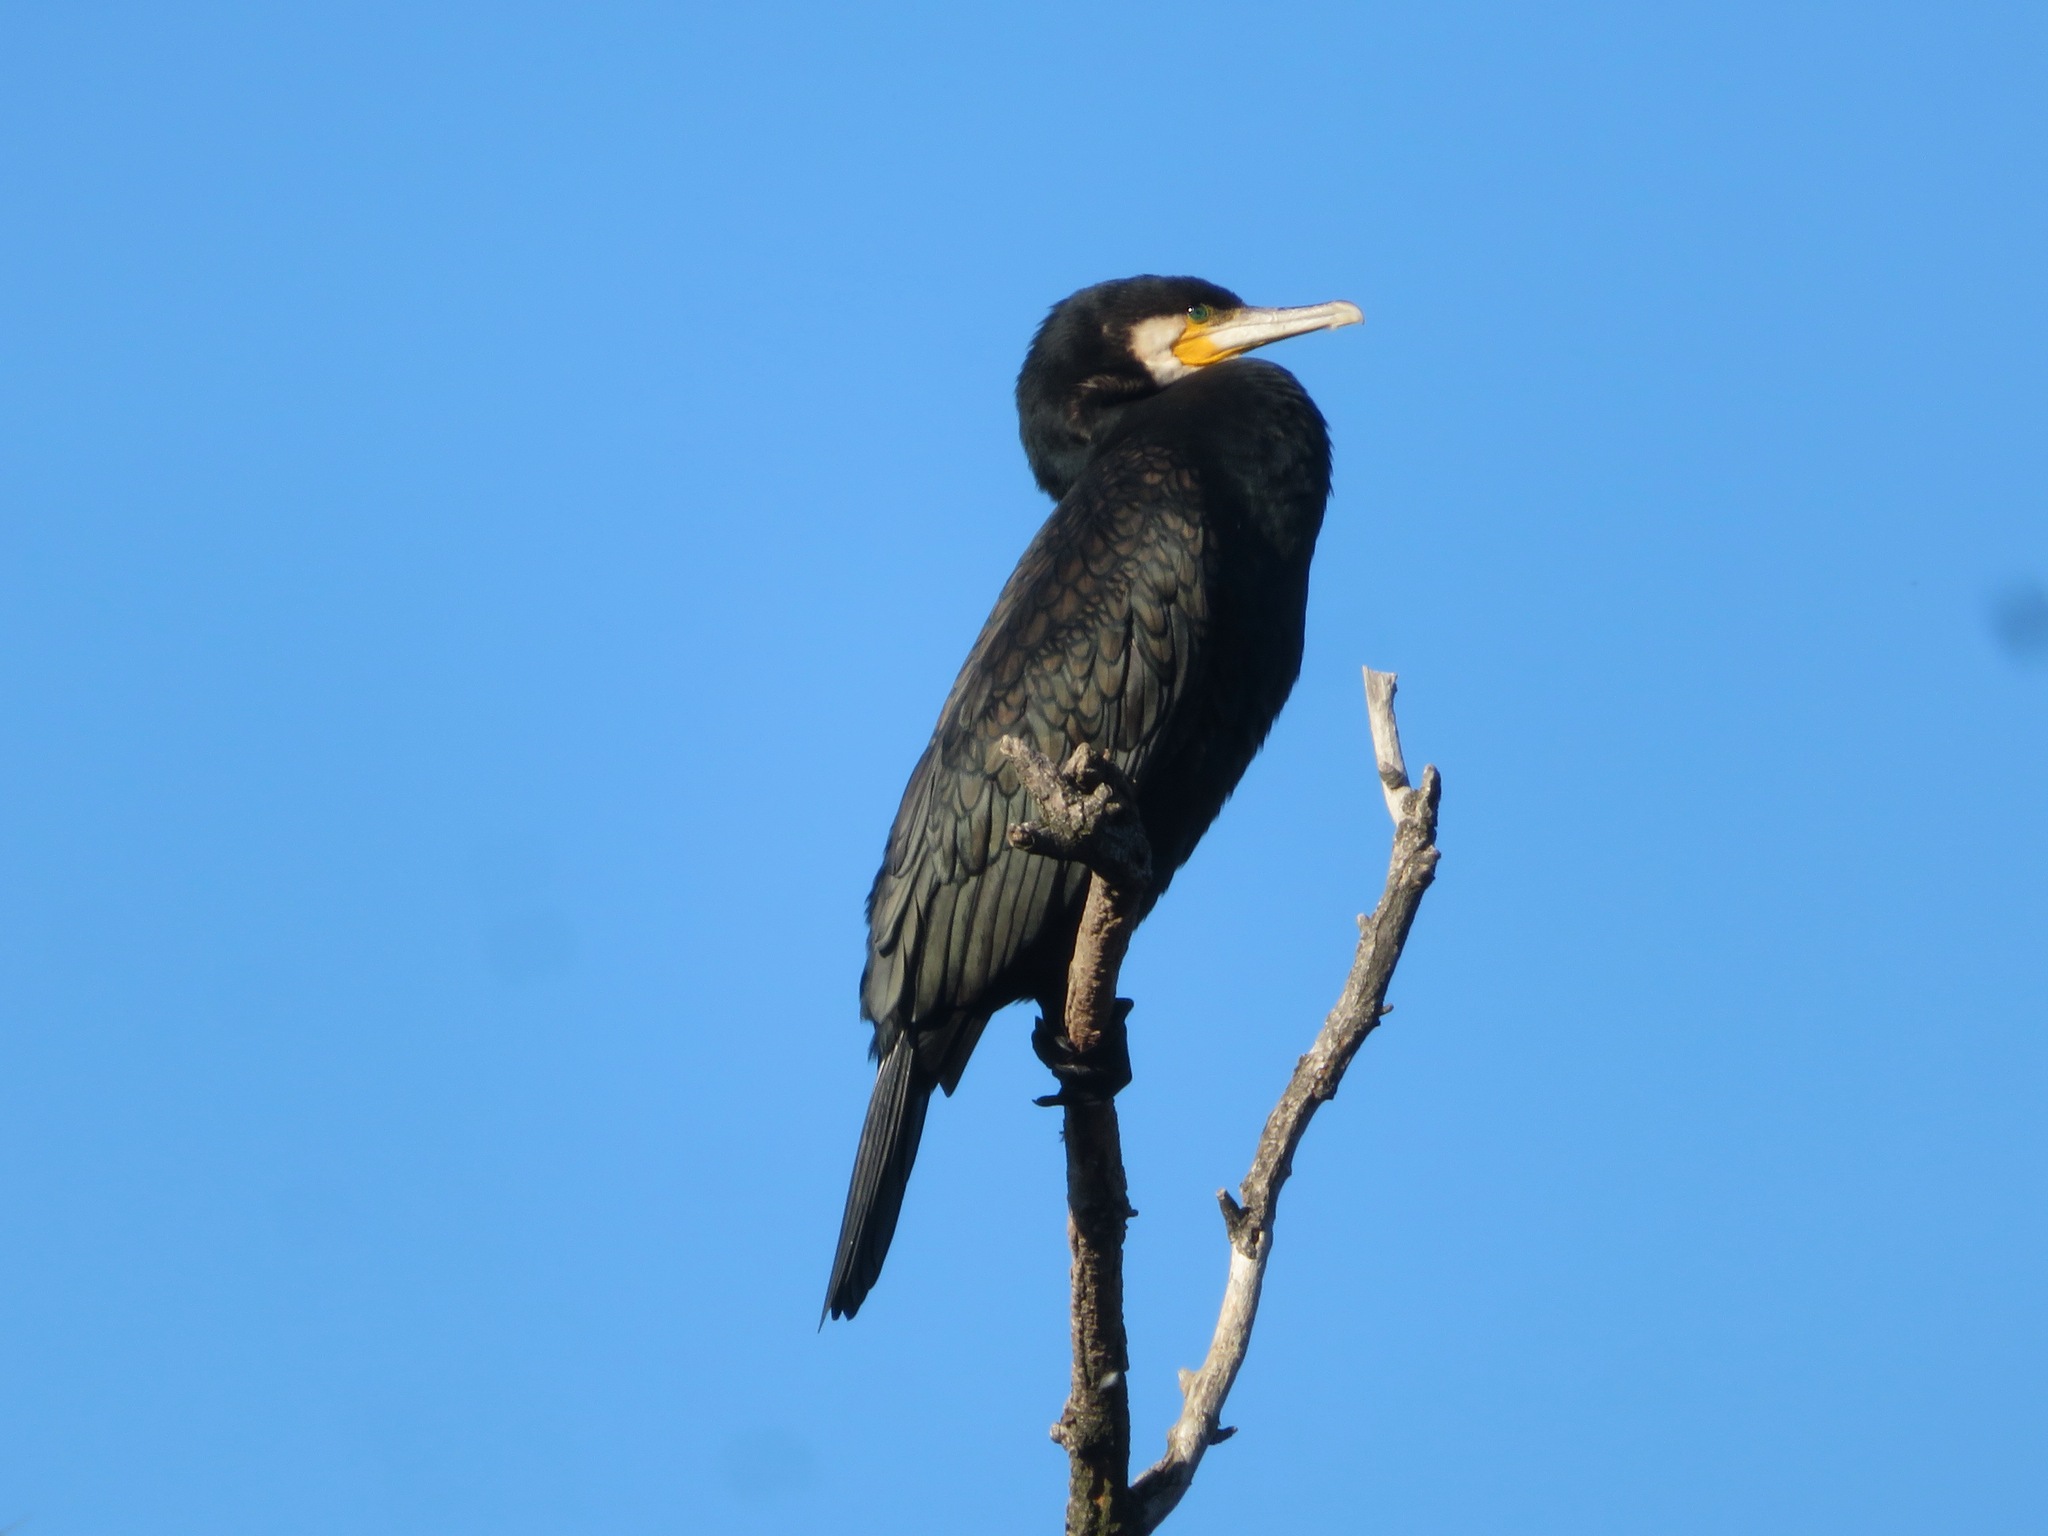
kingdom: Animalia
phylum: Chordata
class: Aves
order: Suliformes
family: Phalacrocoracidae
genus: Phalacrocorax
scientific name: Phalacrocorax carbo
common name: Great cormorant
